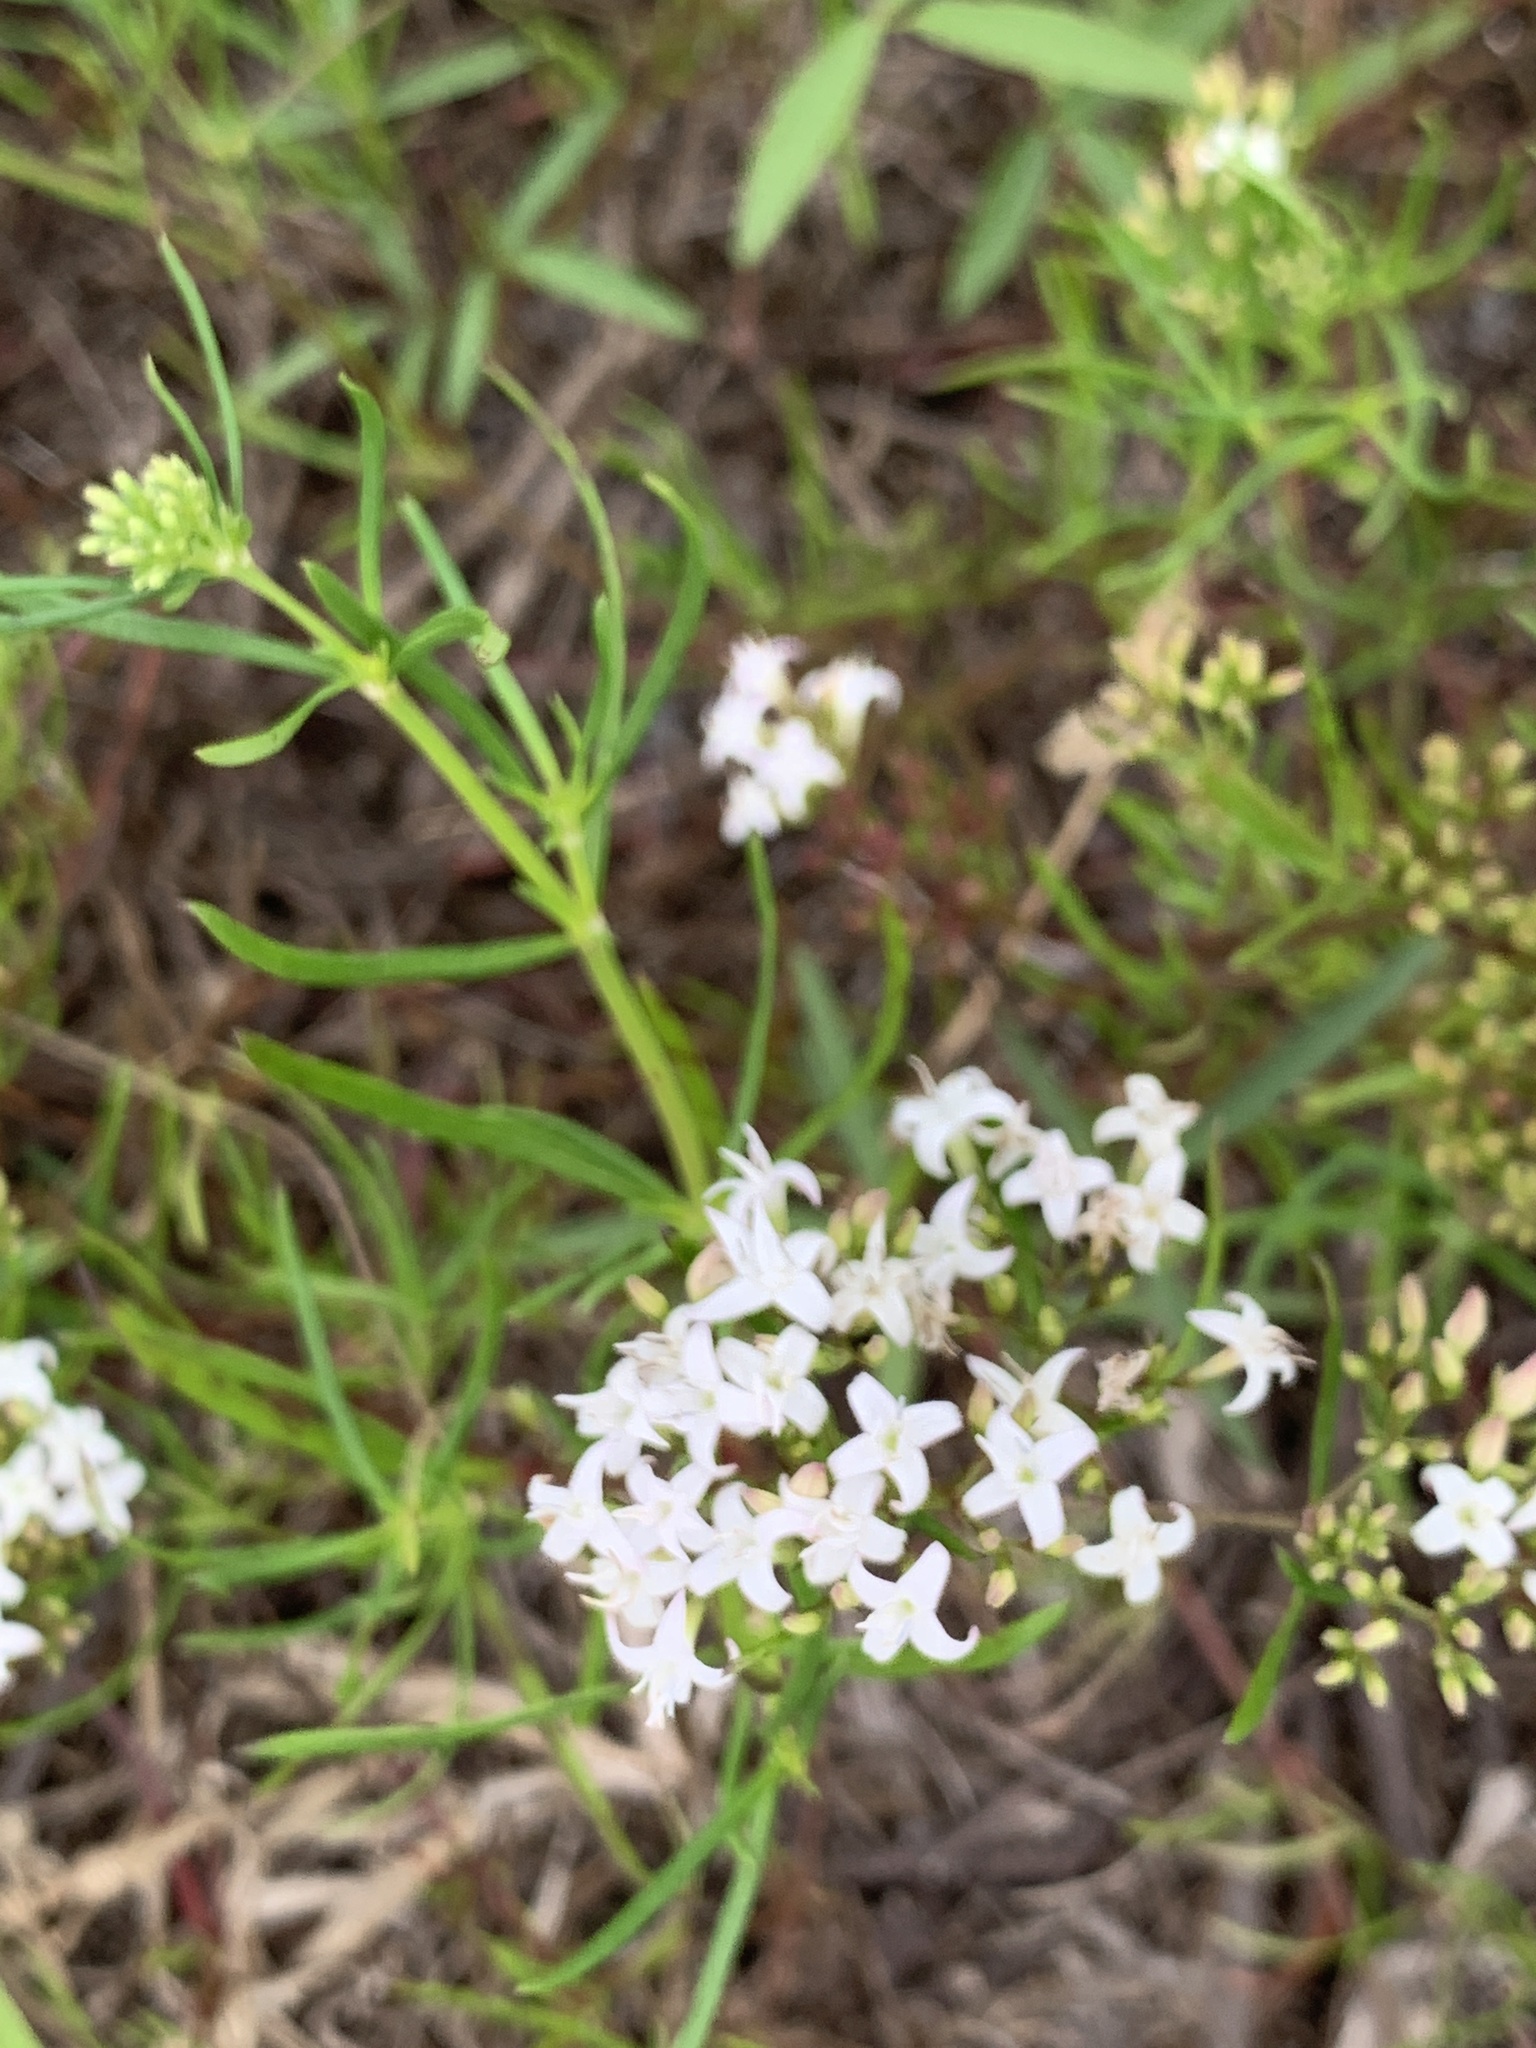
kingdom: Plantae
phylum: Tracheophyta
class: Magnoliopsida
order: Gentianales
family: Rubiaceae
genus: Stenaria
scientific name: Stenaria nigricans
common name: Diamondflowers
